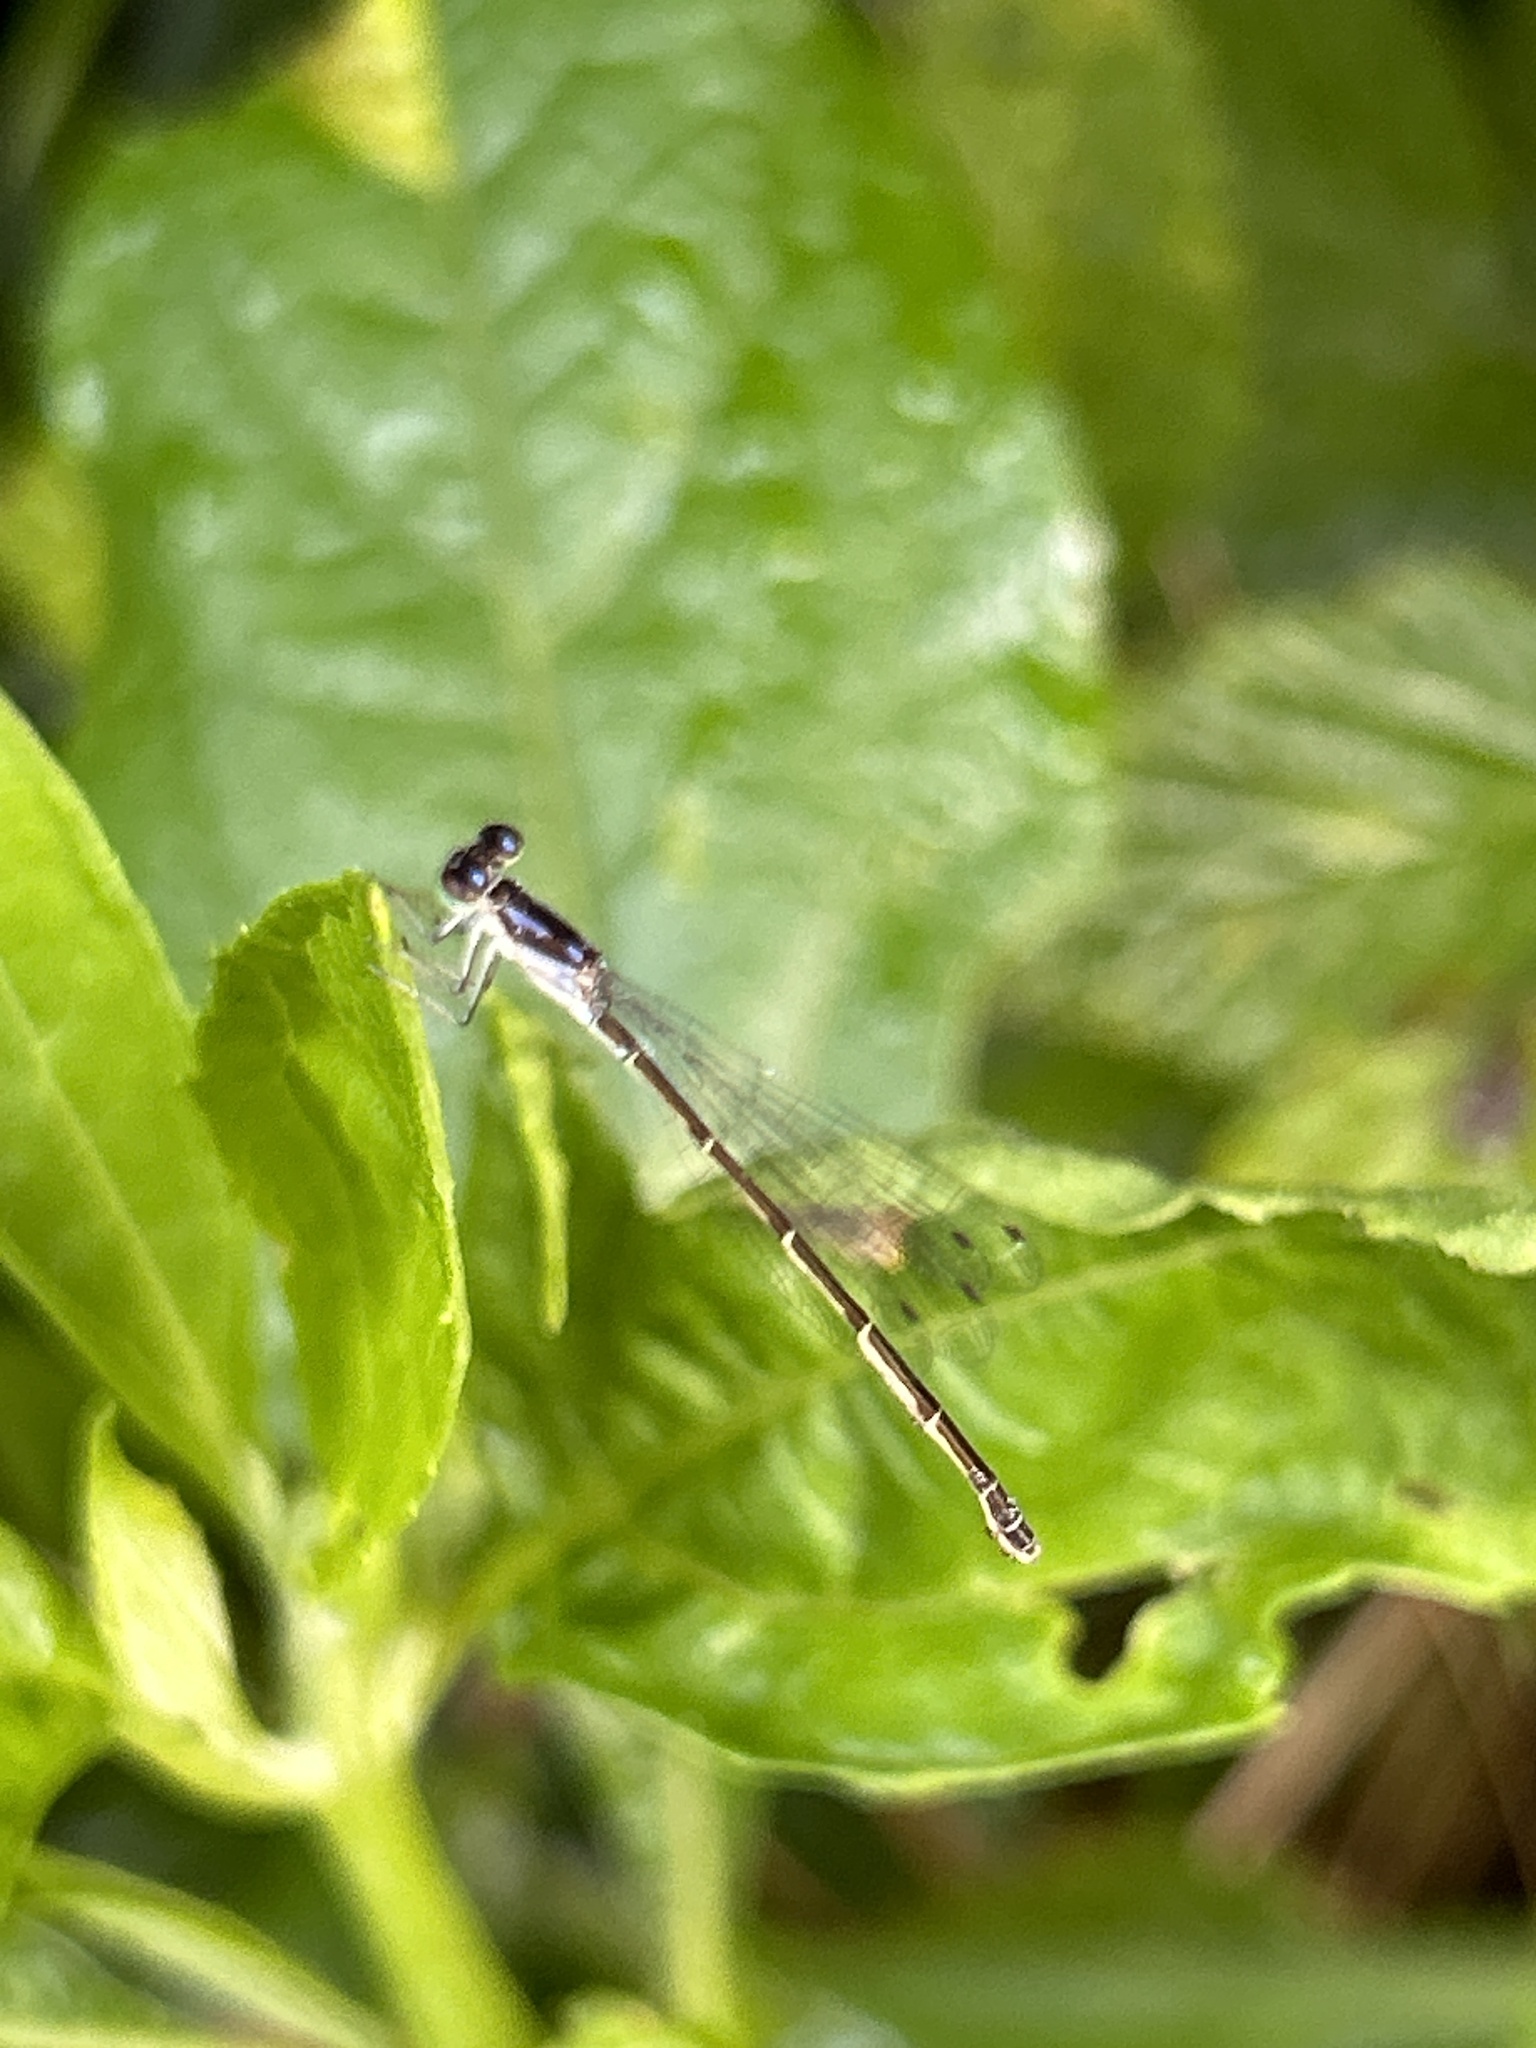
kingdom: Animalia
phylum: Arthropoda
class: Insecta
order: Odonata
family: Coenagrionidae
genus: Ischnura
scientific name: Ischnura posita
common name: Fragile forktail
